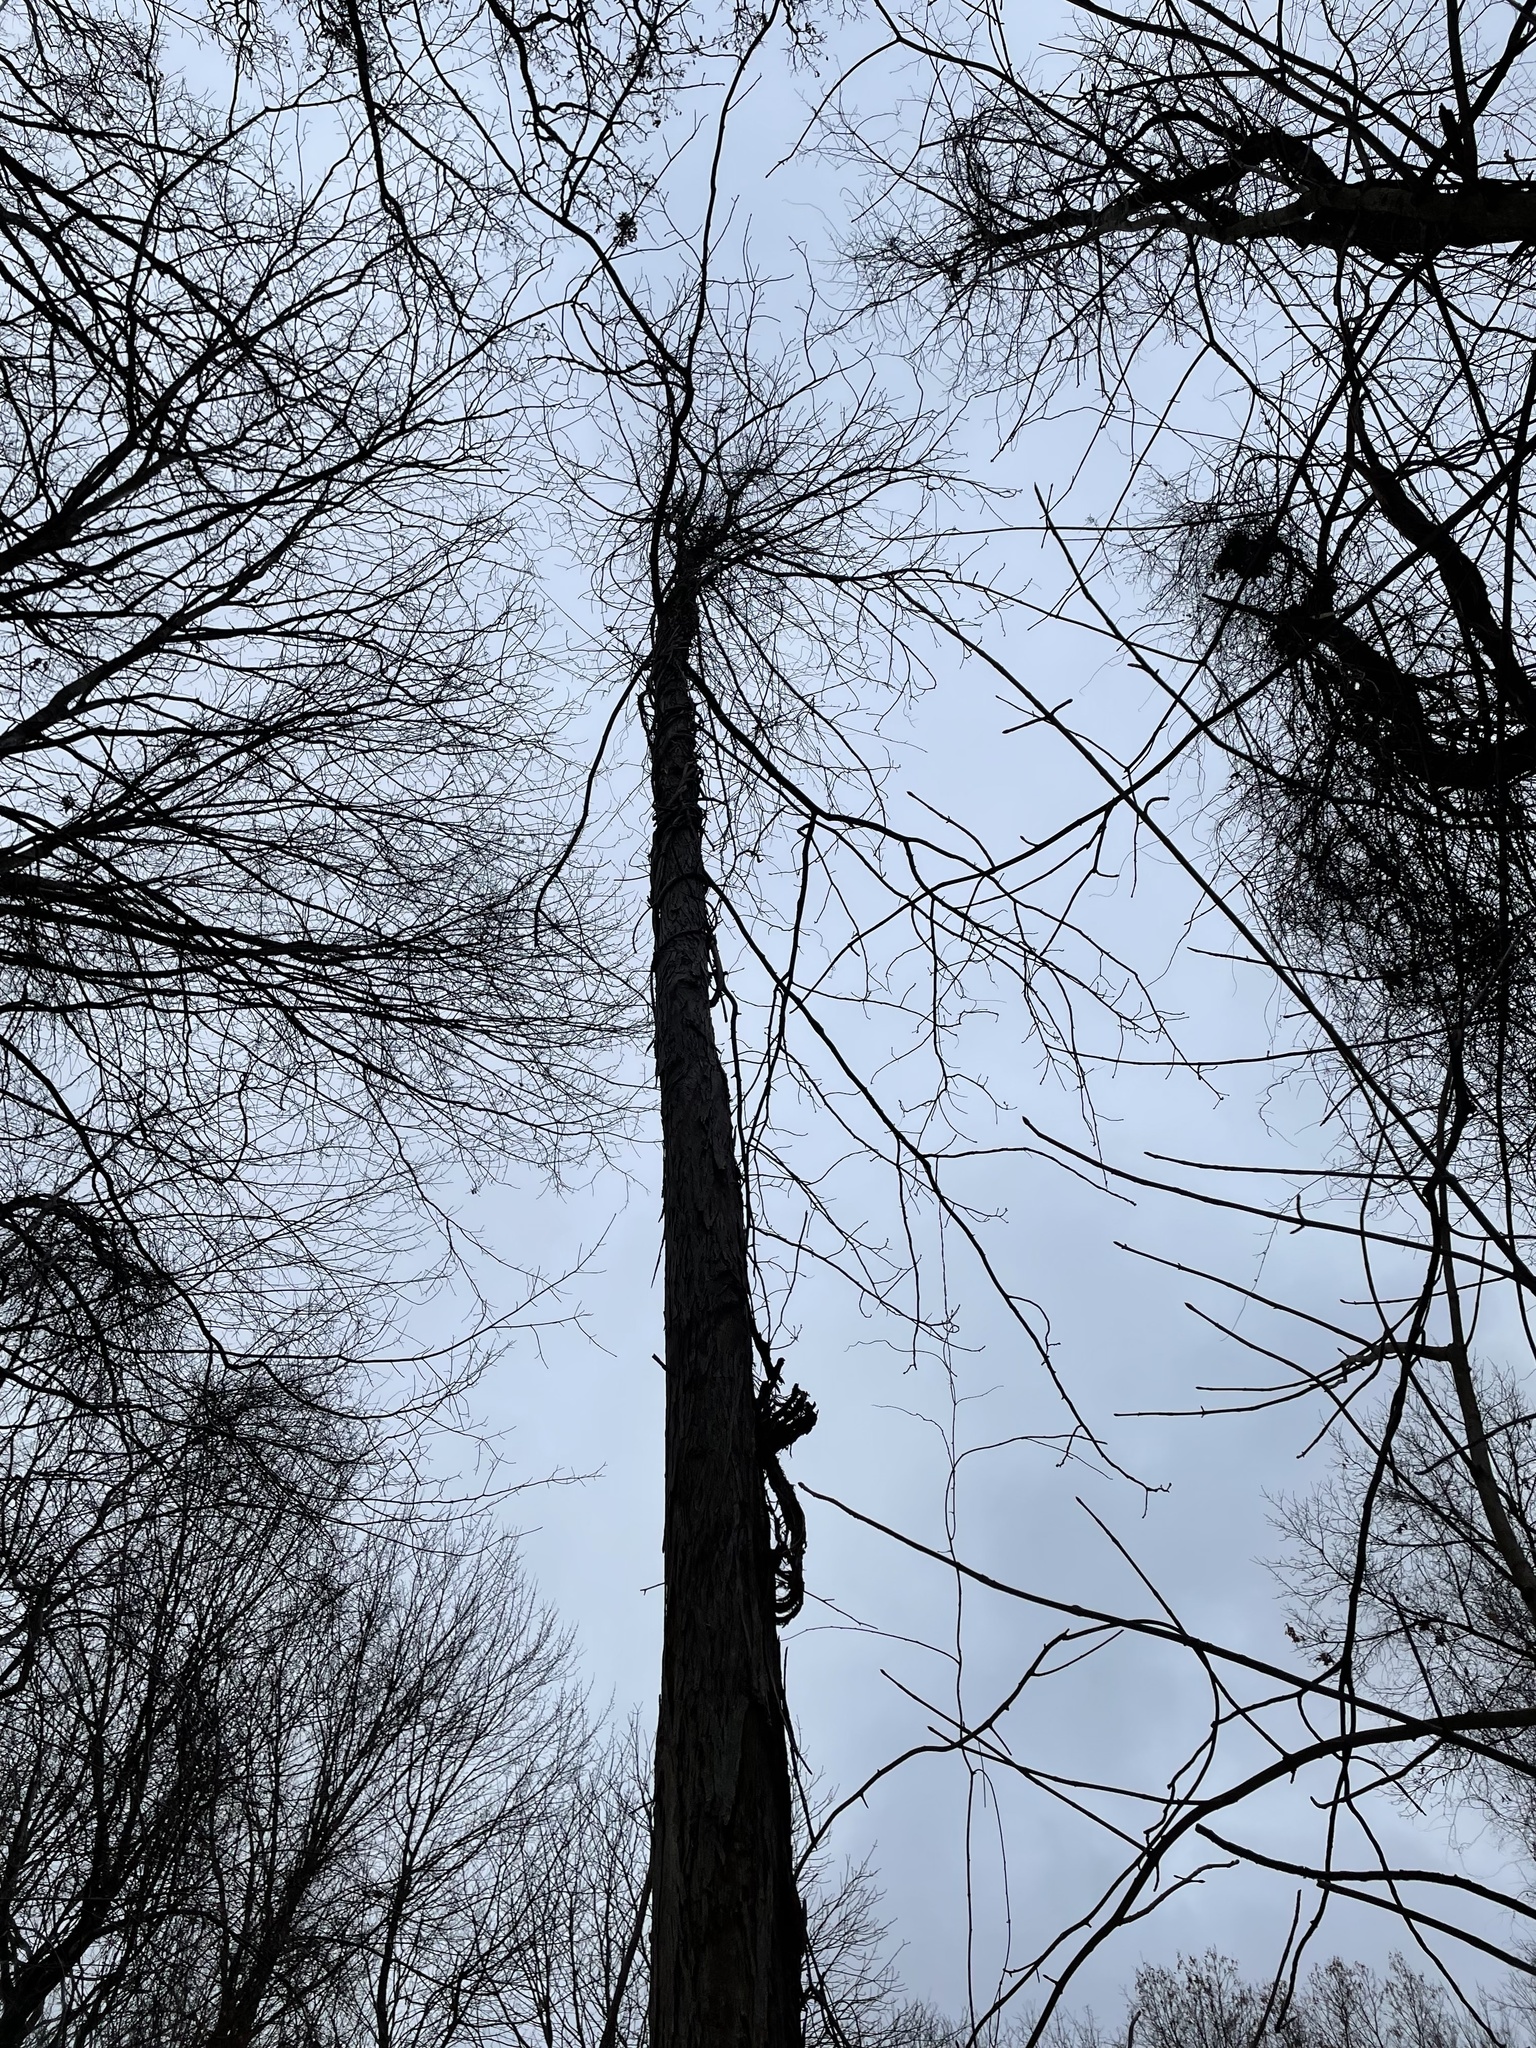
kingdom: Plantae
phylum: Tracheophyta
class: Magnoliopsida
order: Fagales
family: Juglandaceae
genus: Carya
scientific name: Carya ovata
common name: Shagbark hickory
